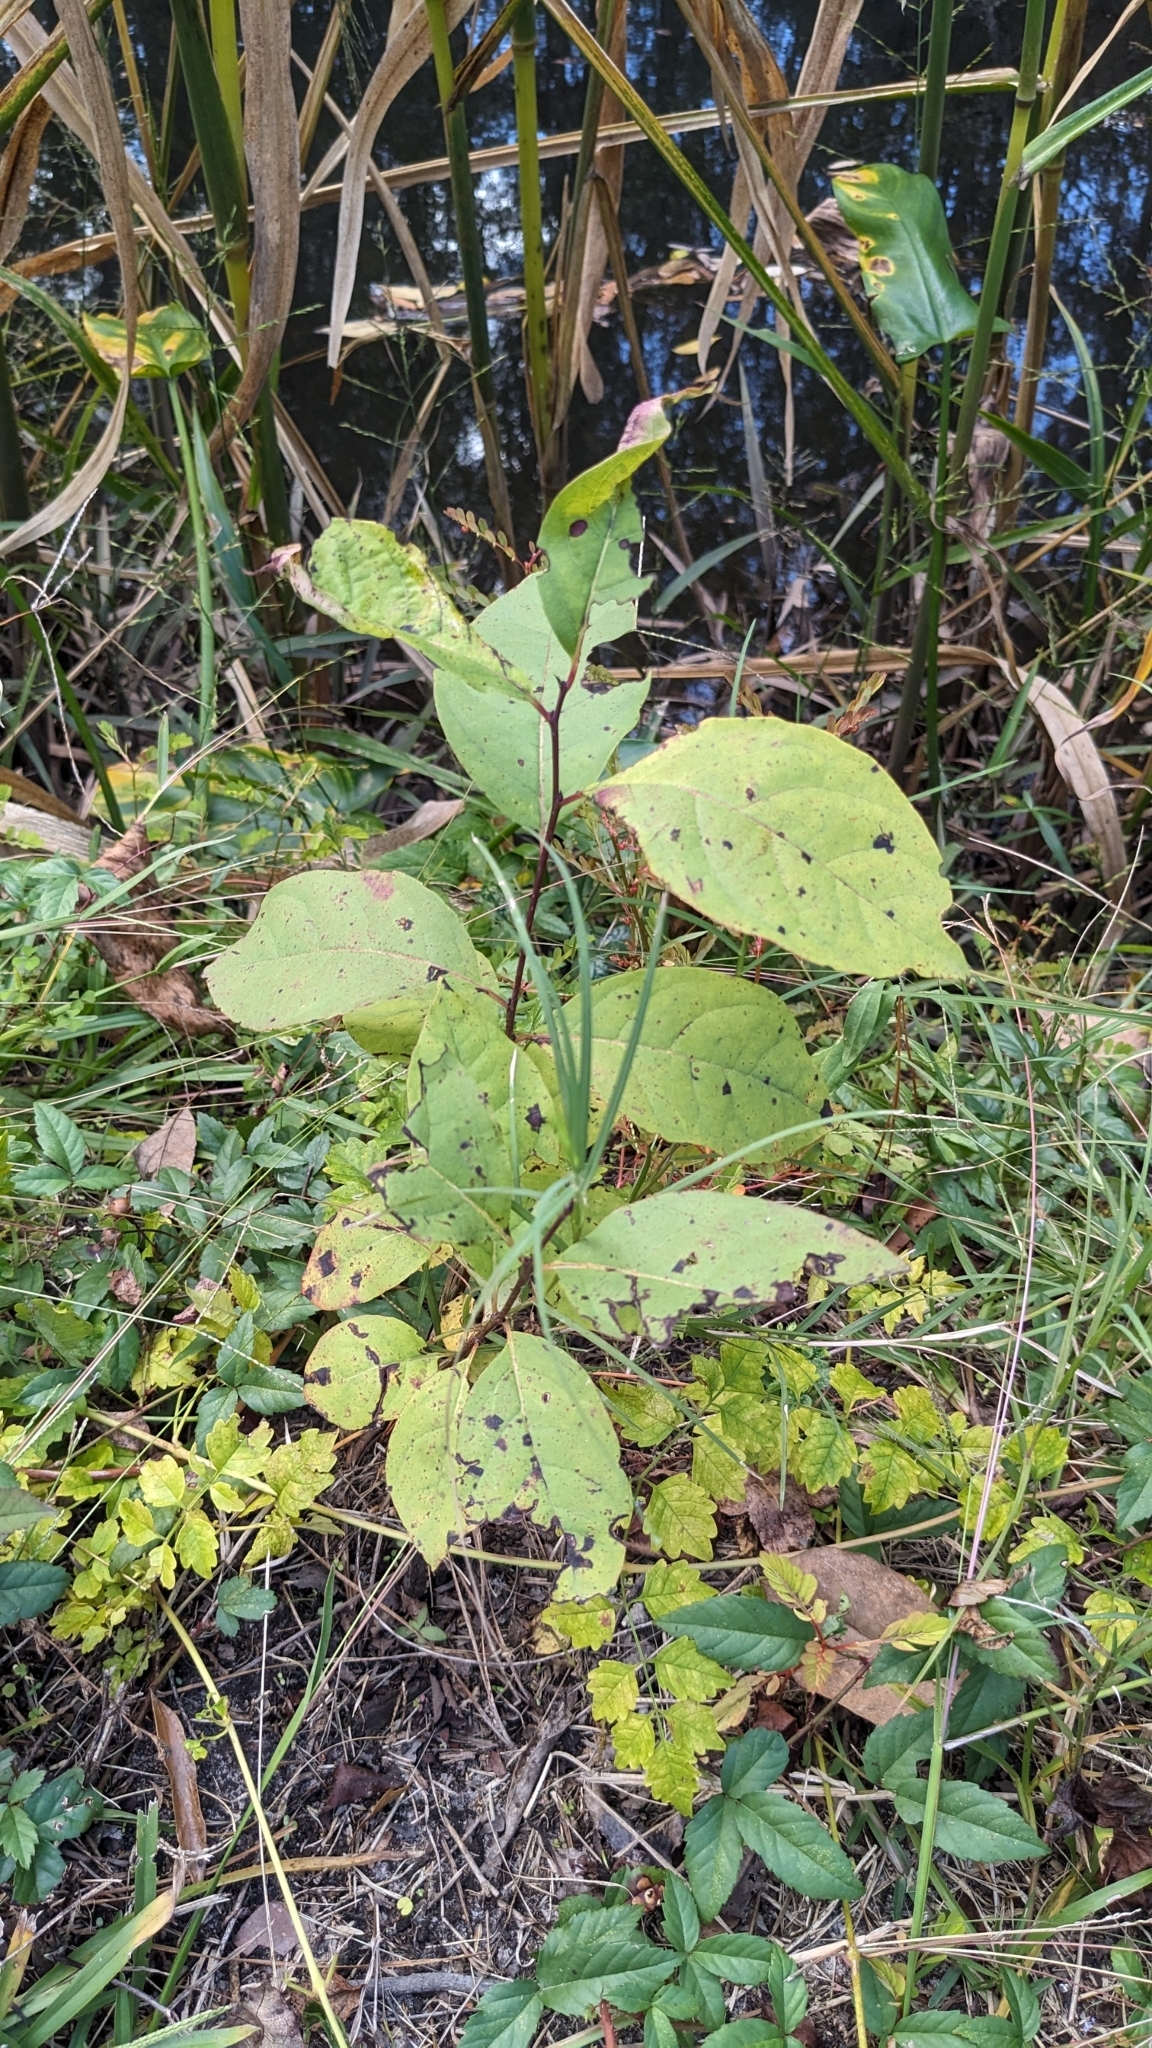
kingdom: Plantae
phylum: Tracheophyta
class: Magnoliopsida
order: Ericales
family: Ebenaceae
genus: Diospyros
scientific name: Diospyros virginiana
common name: Persimmon
